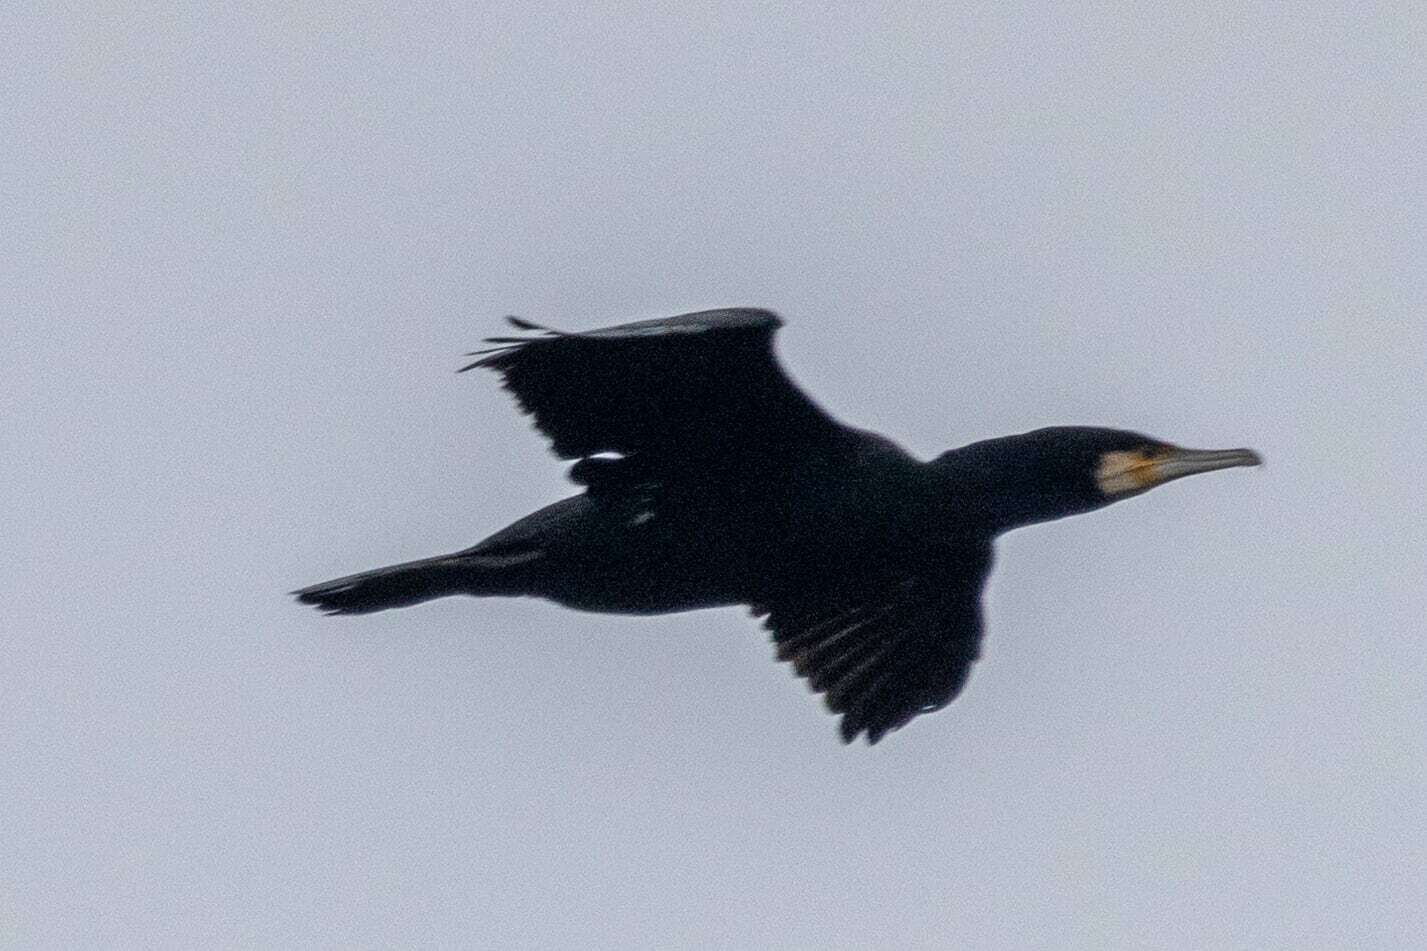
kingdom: Animalia
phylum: Chordata
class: Aves
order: Suliformes
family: Phalacrocoracidae
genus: Phalacrocorax
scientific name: Phalacrocorax carbo
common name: Great cormorant
